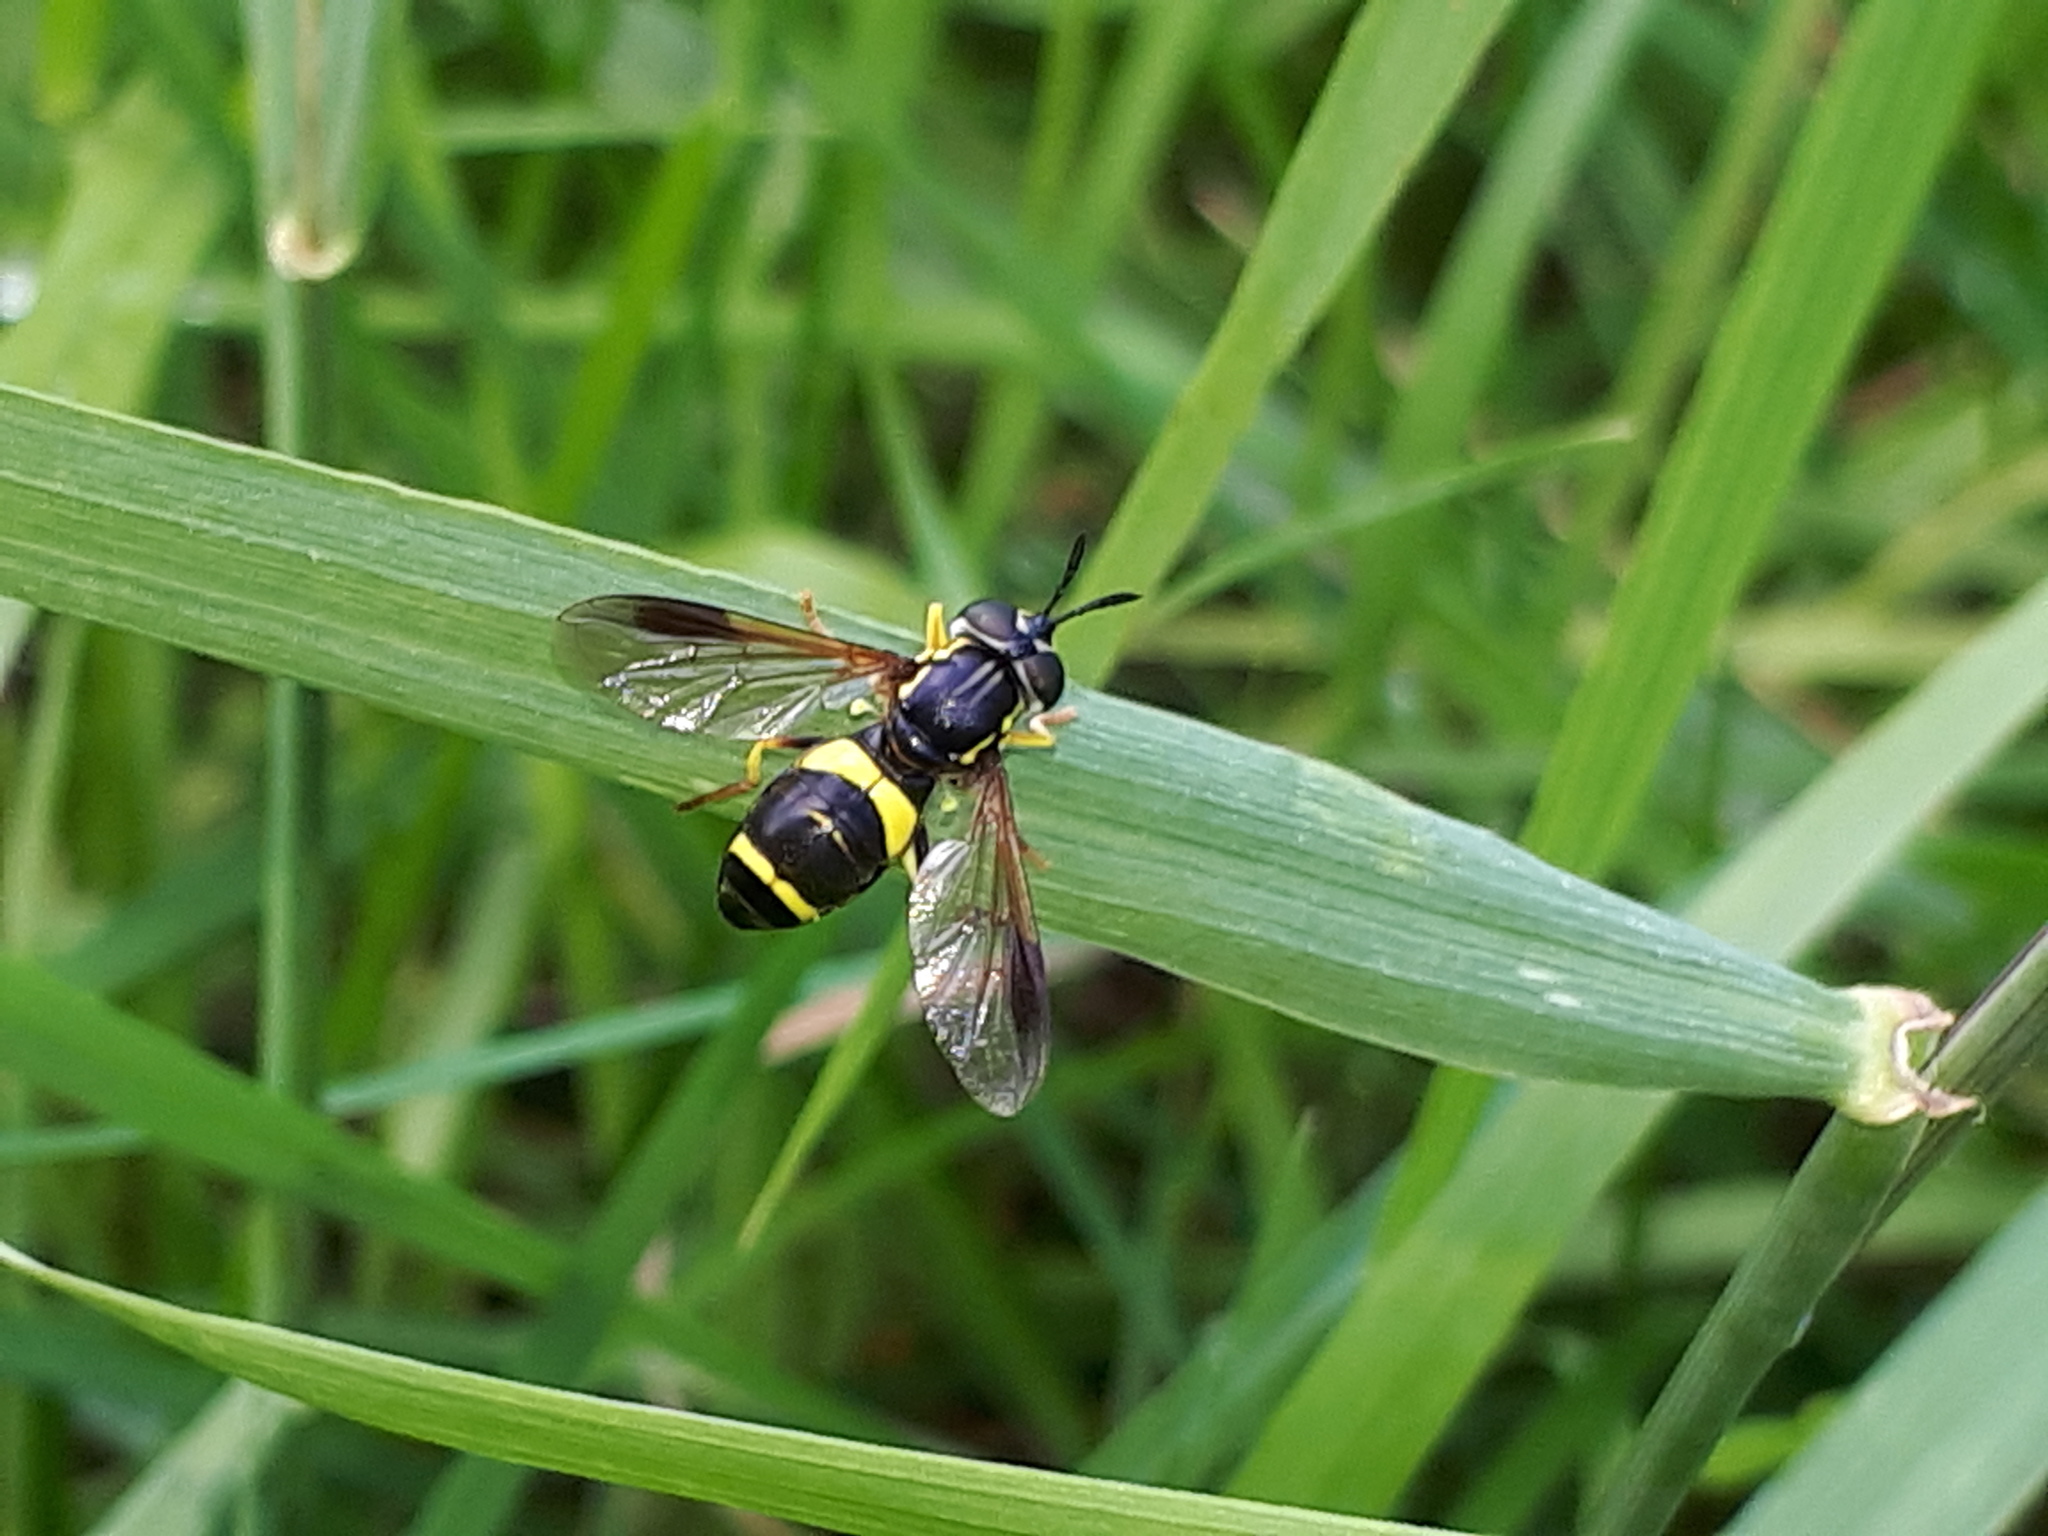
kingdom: Animalia
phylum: Arthropoda
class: Insecta
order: Diptera
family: Syrphidae
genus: Chrysotoxum
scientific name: Chrysotoxum bicincta
